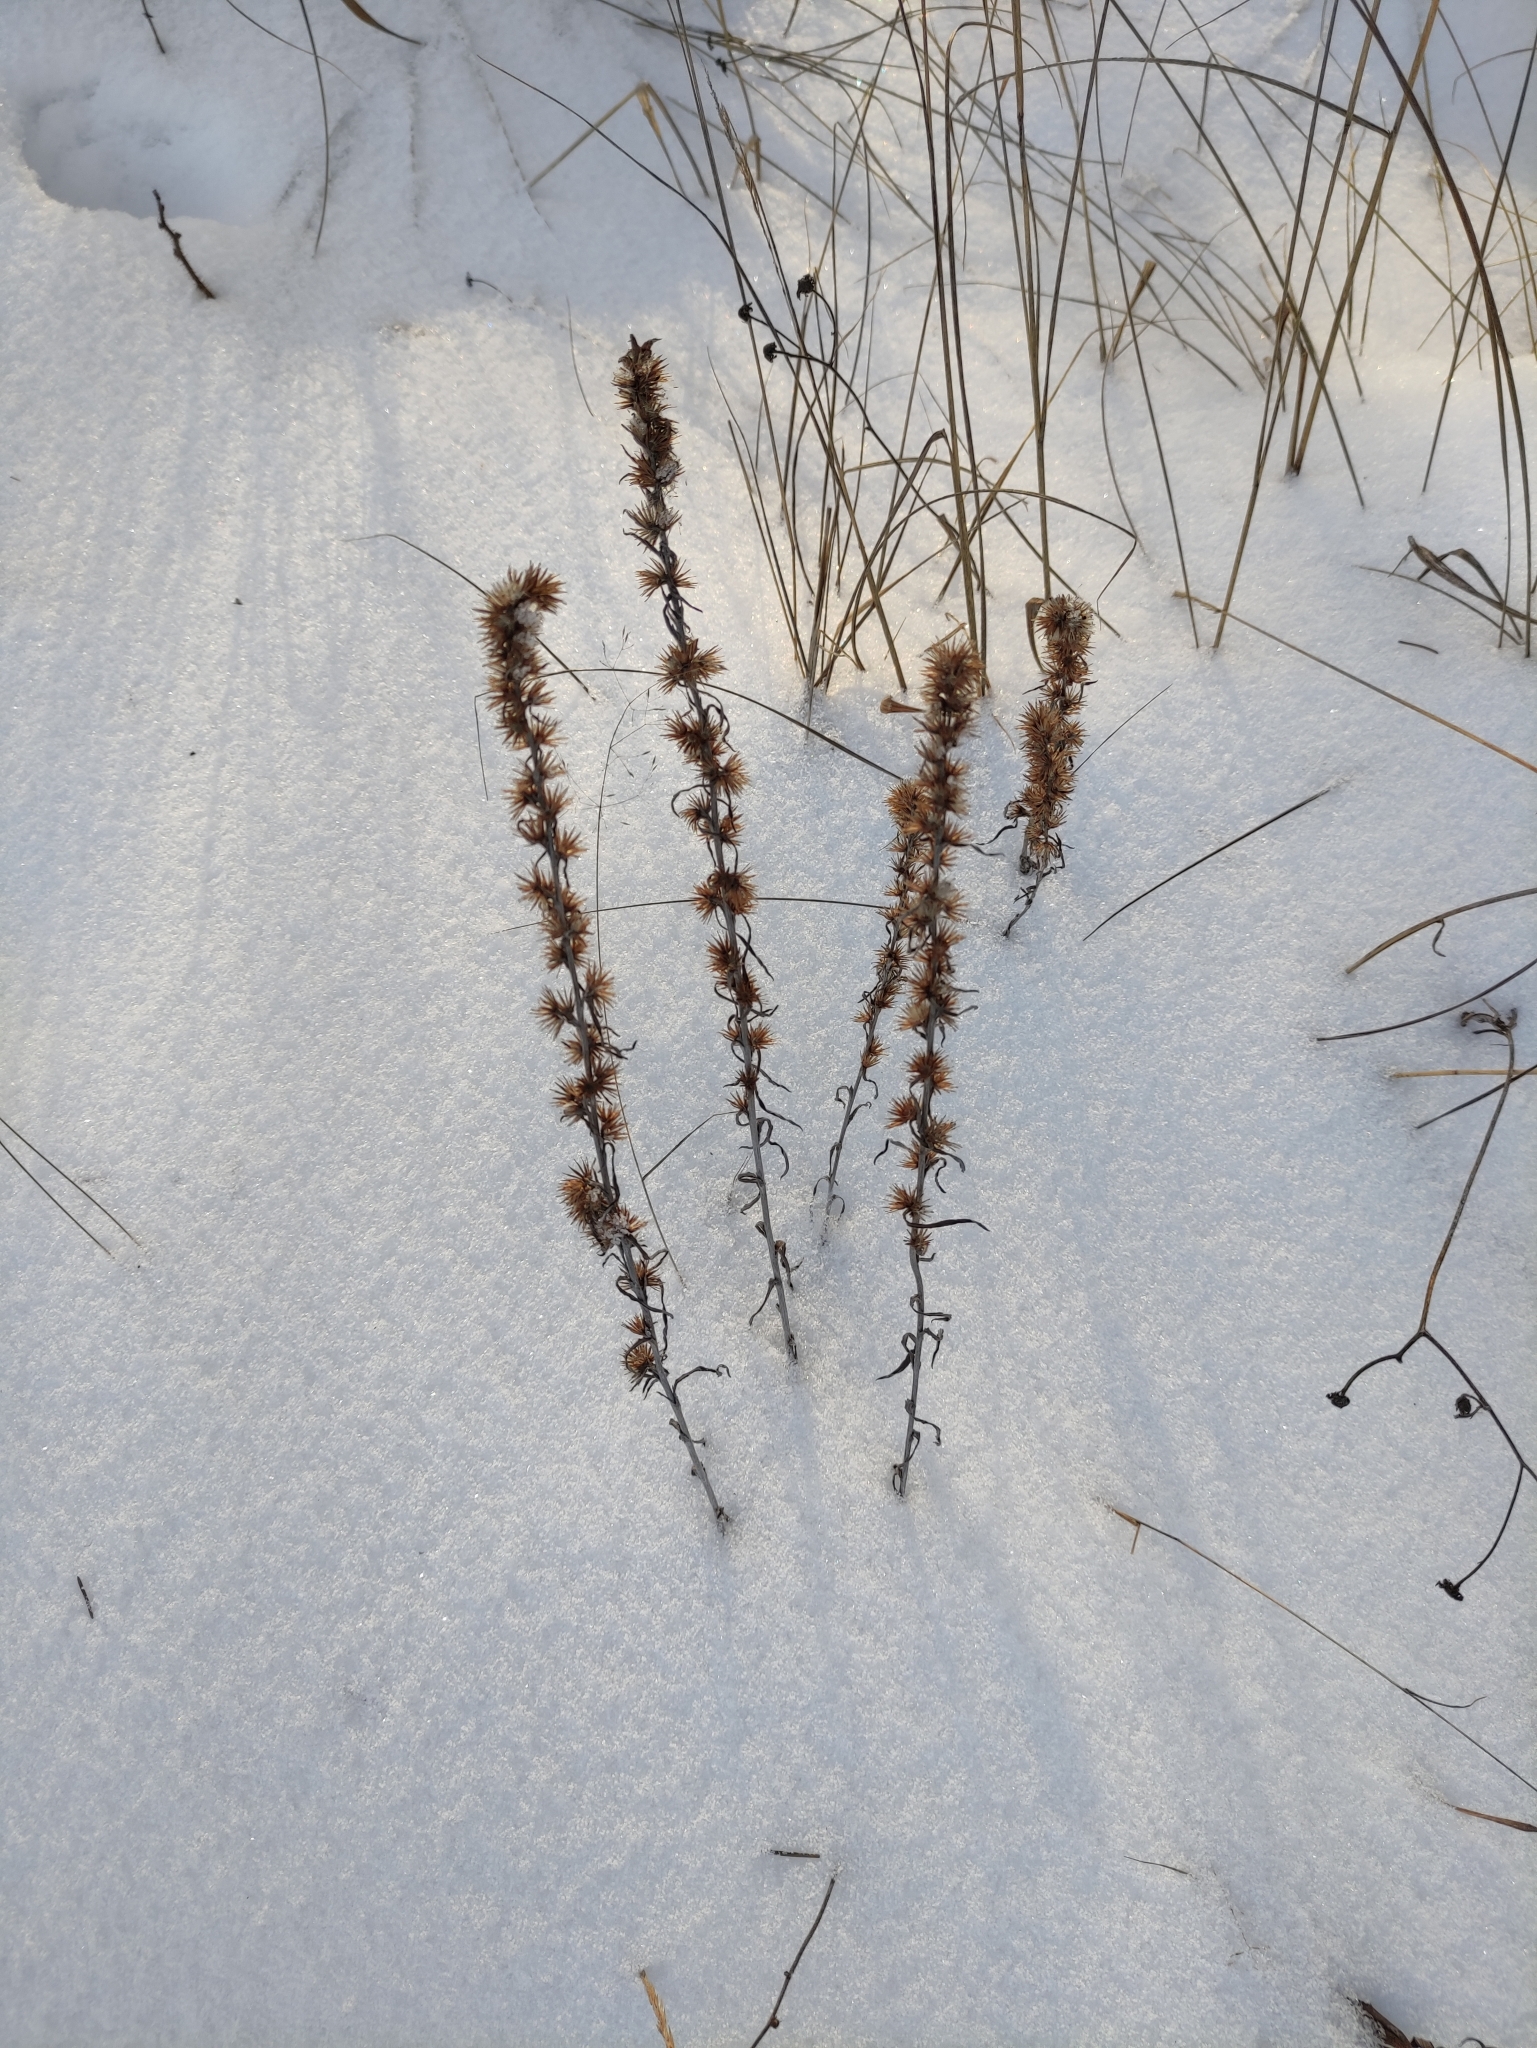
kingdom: Plantae
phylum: Tracheophyta
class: Magnoliopsida
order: Asterales
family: Asteraceae
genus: Omalotheca
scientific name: Omalotheca sylvatica
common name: Heath cudweed
